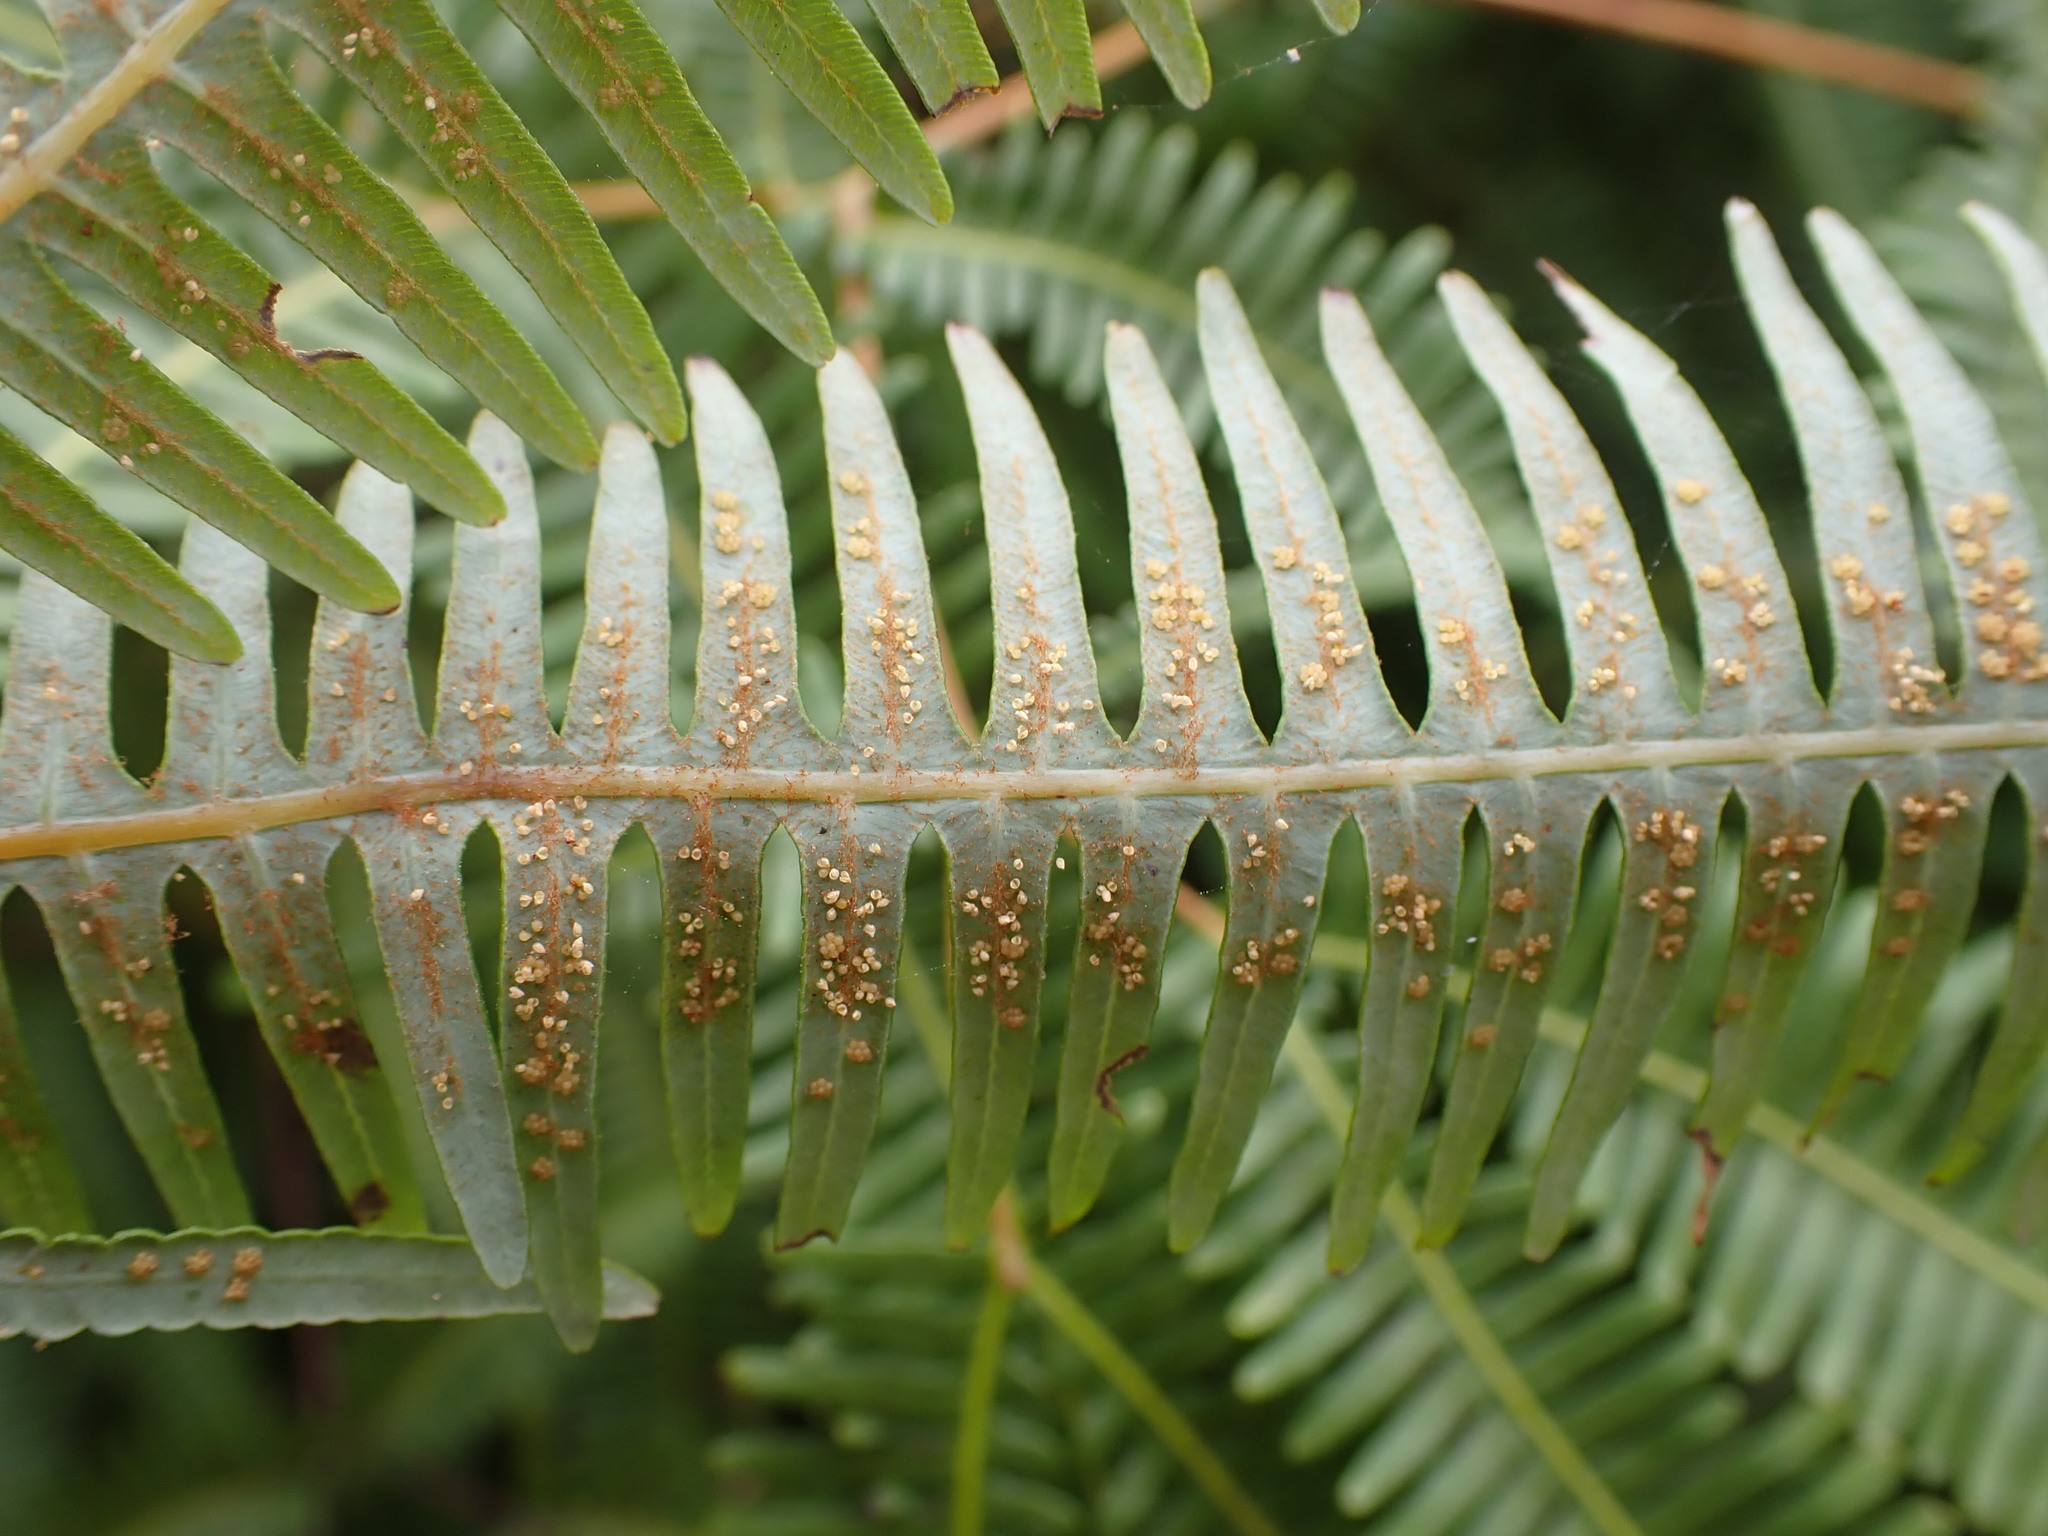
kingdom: Plantae
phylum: Tracheophyta
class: Polypodiopsida
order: Gleicheniales
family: Gleicheniaceae
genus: Dicranopteris
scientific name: Dicranopteris linearis
